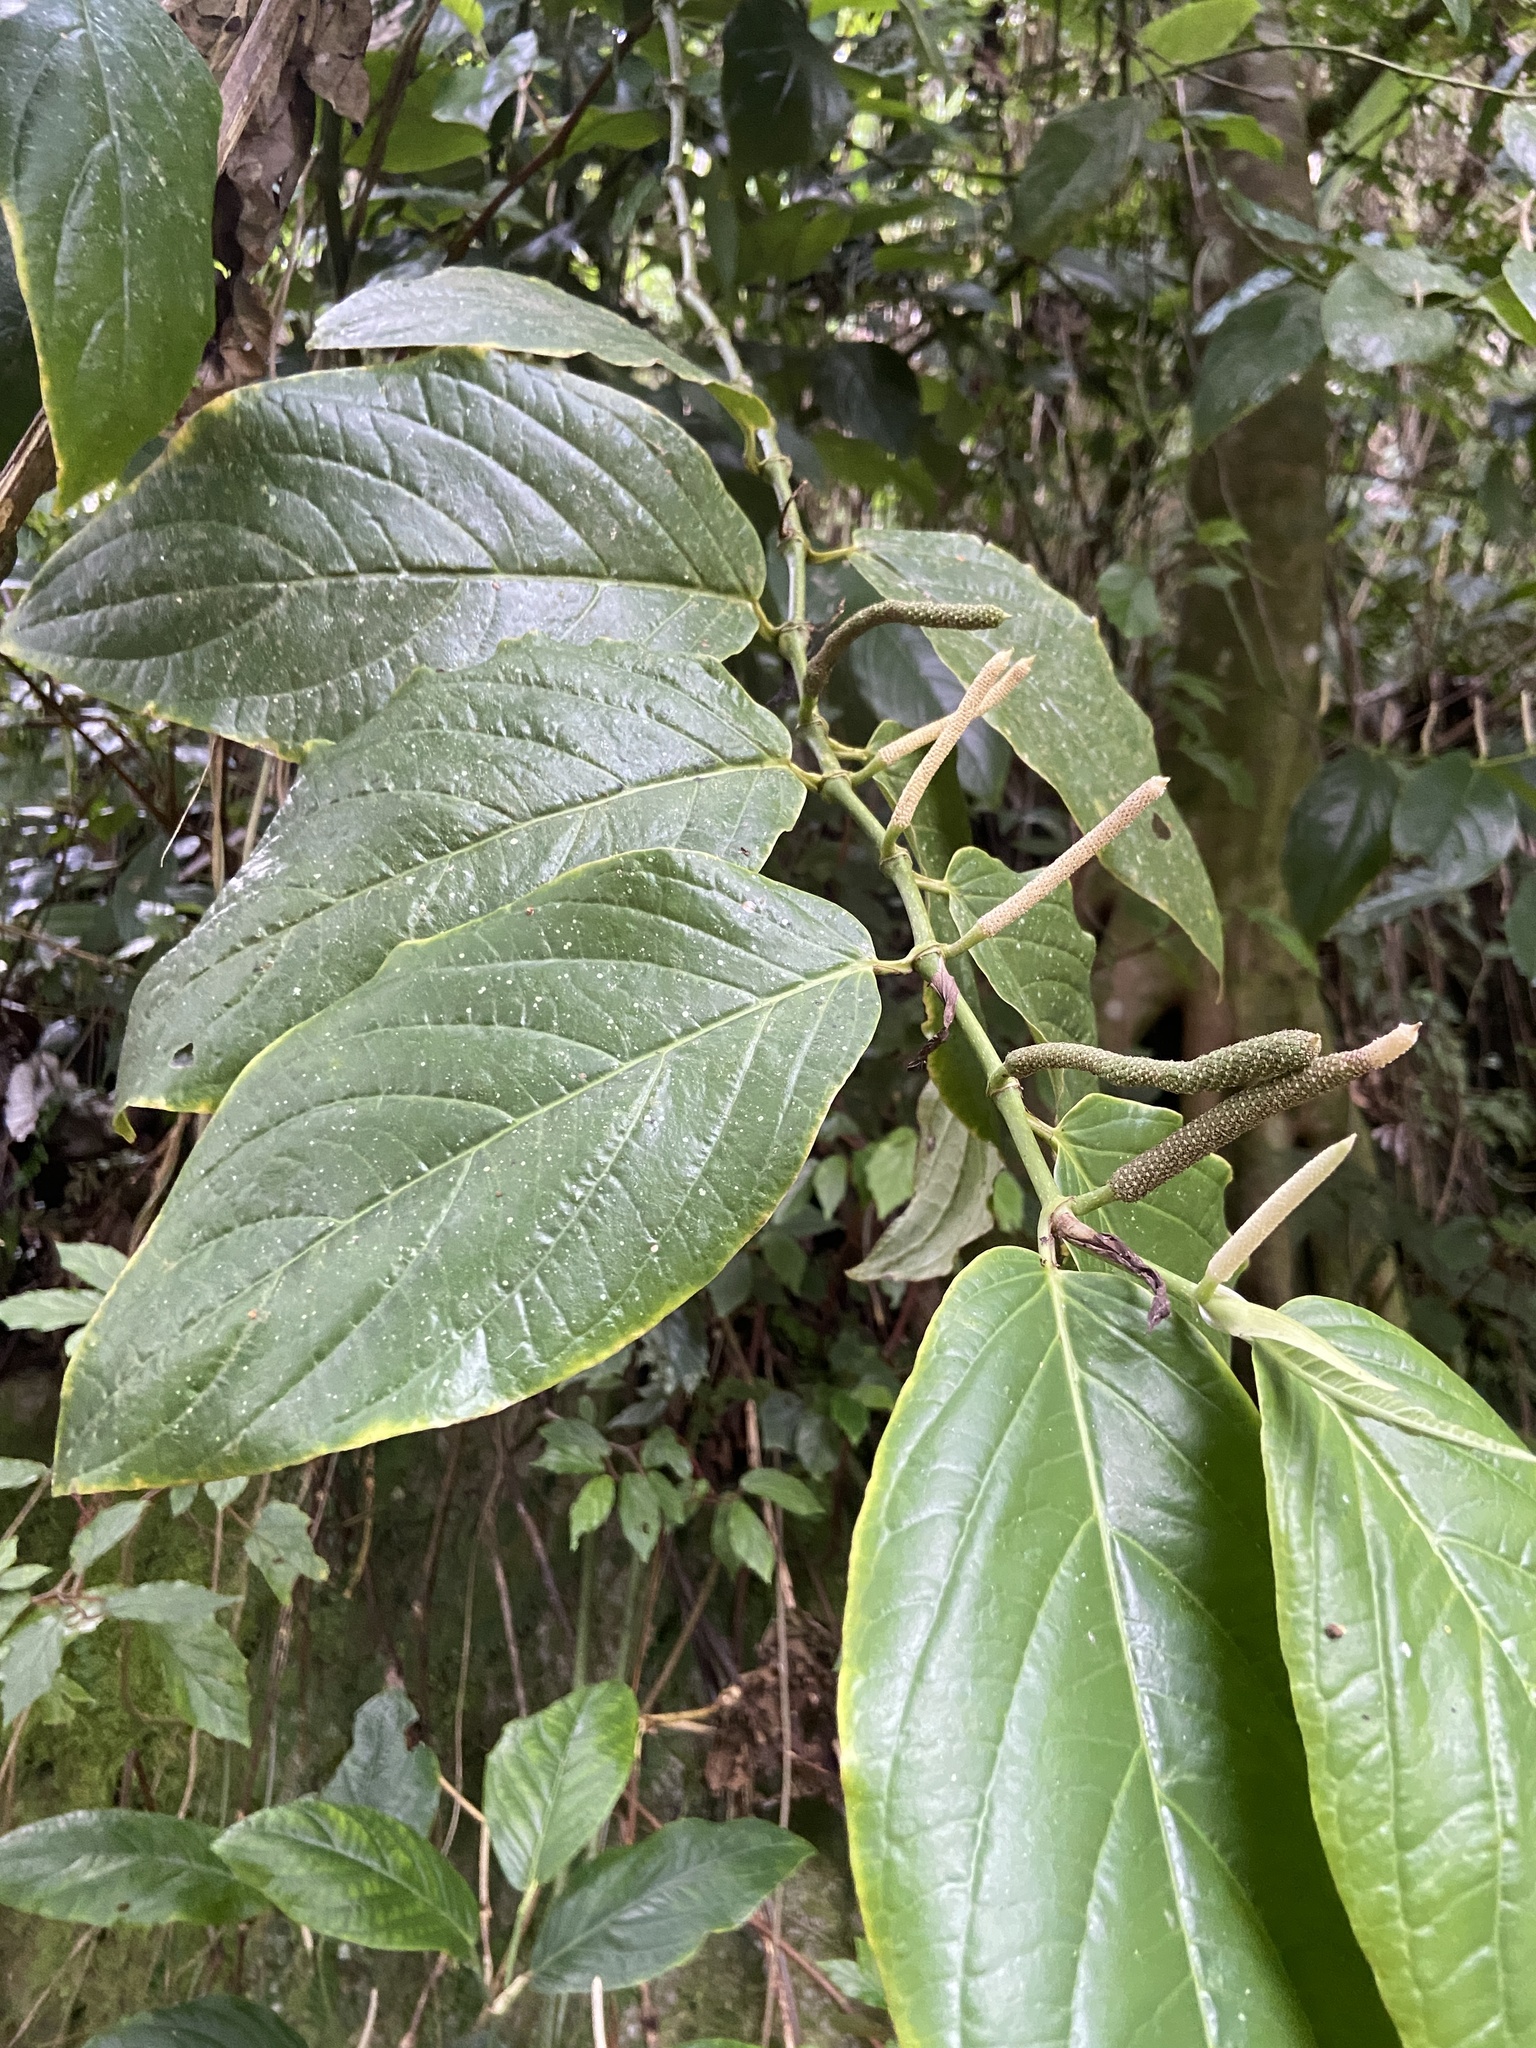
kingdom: Plantae
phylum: Tracheophyta
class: Magnoliopsida
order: Piperales
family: Piperaceae
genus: Piper
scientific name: Piper glabrescens
